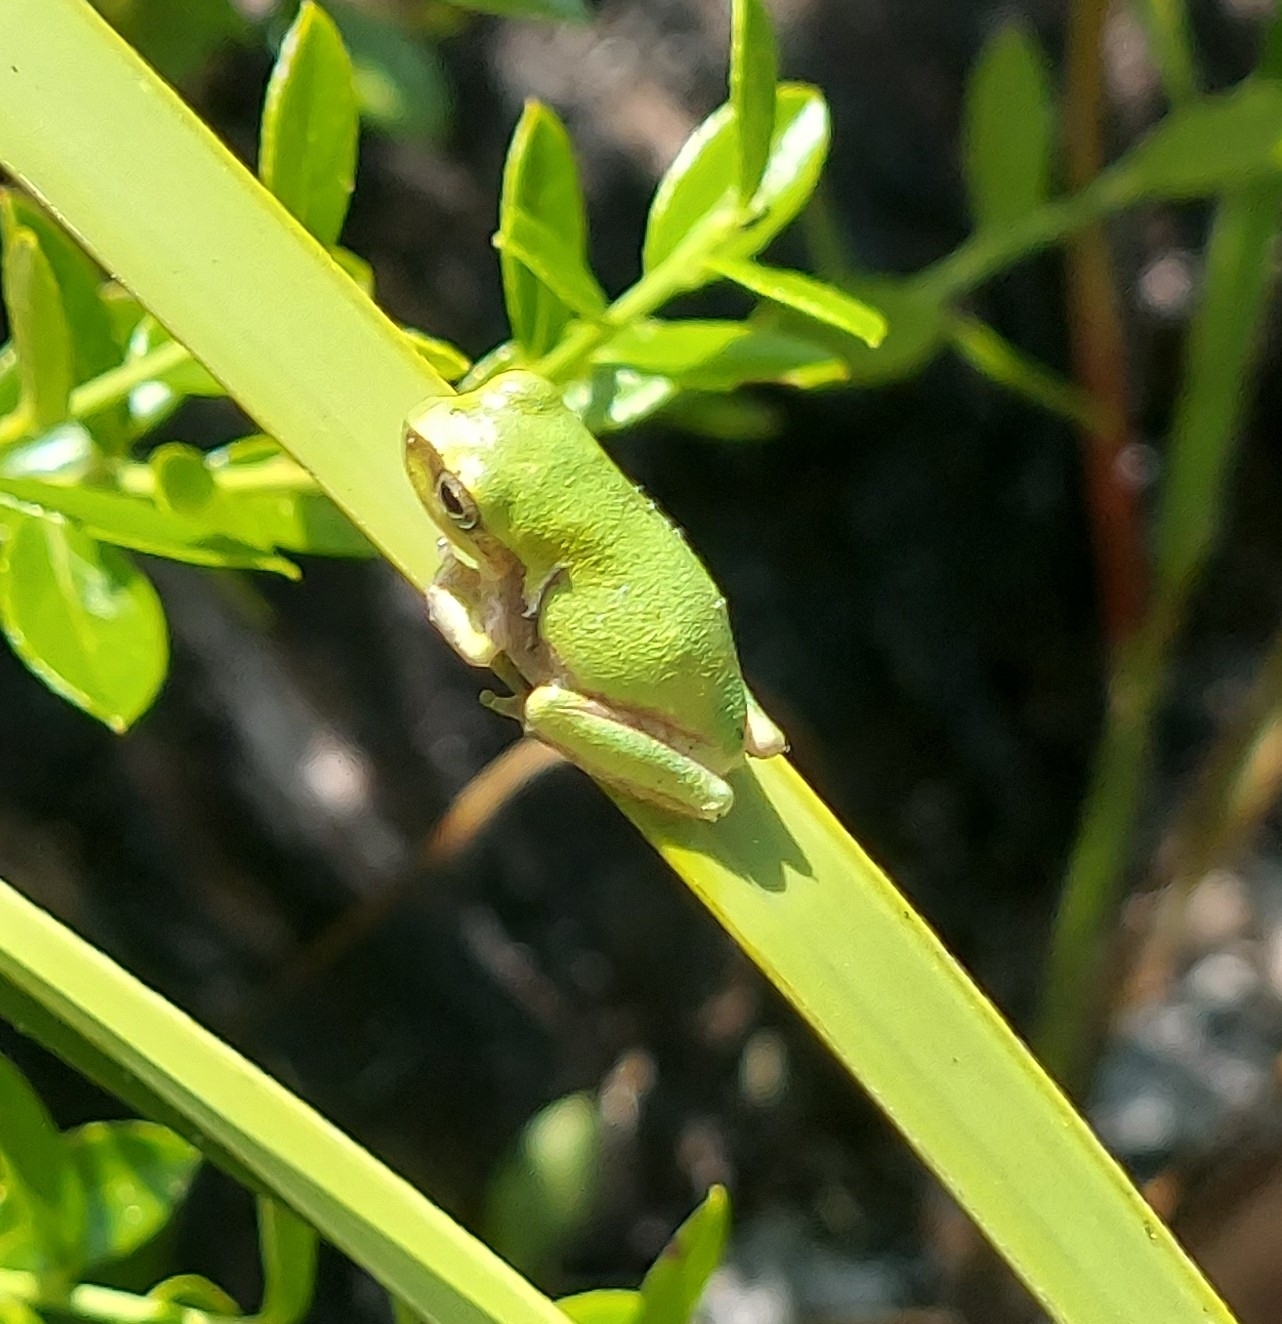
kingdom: Animalia
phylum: Chordata
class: Amphibia
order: Anura
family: Hylidae
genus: Hyla
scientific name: Hyla femoralis
